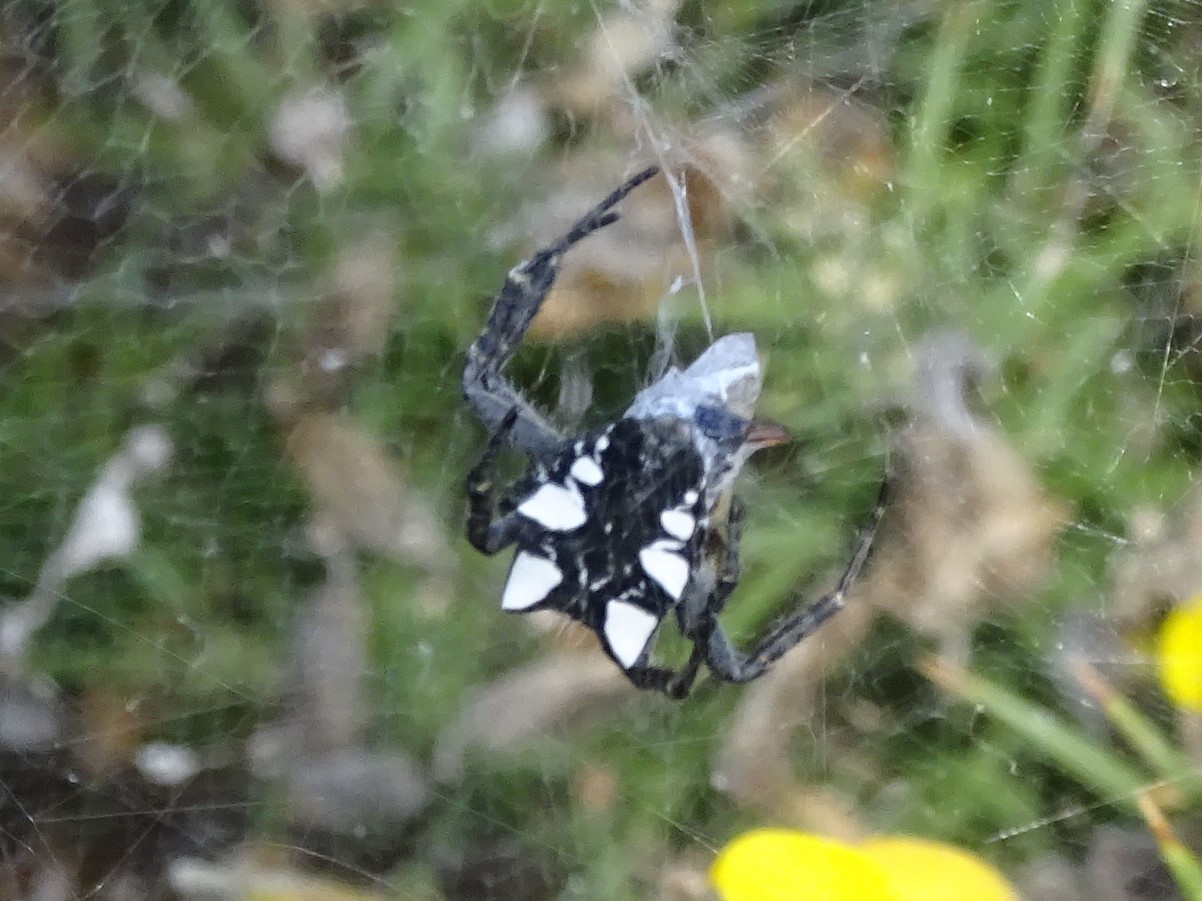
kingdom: Animalia
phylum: Arthropoda
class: Arachnida
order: Araneae
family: Araneidae
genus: Cyrtophora
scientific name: Cyrtophora citricola
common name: Orb weavers
